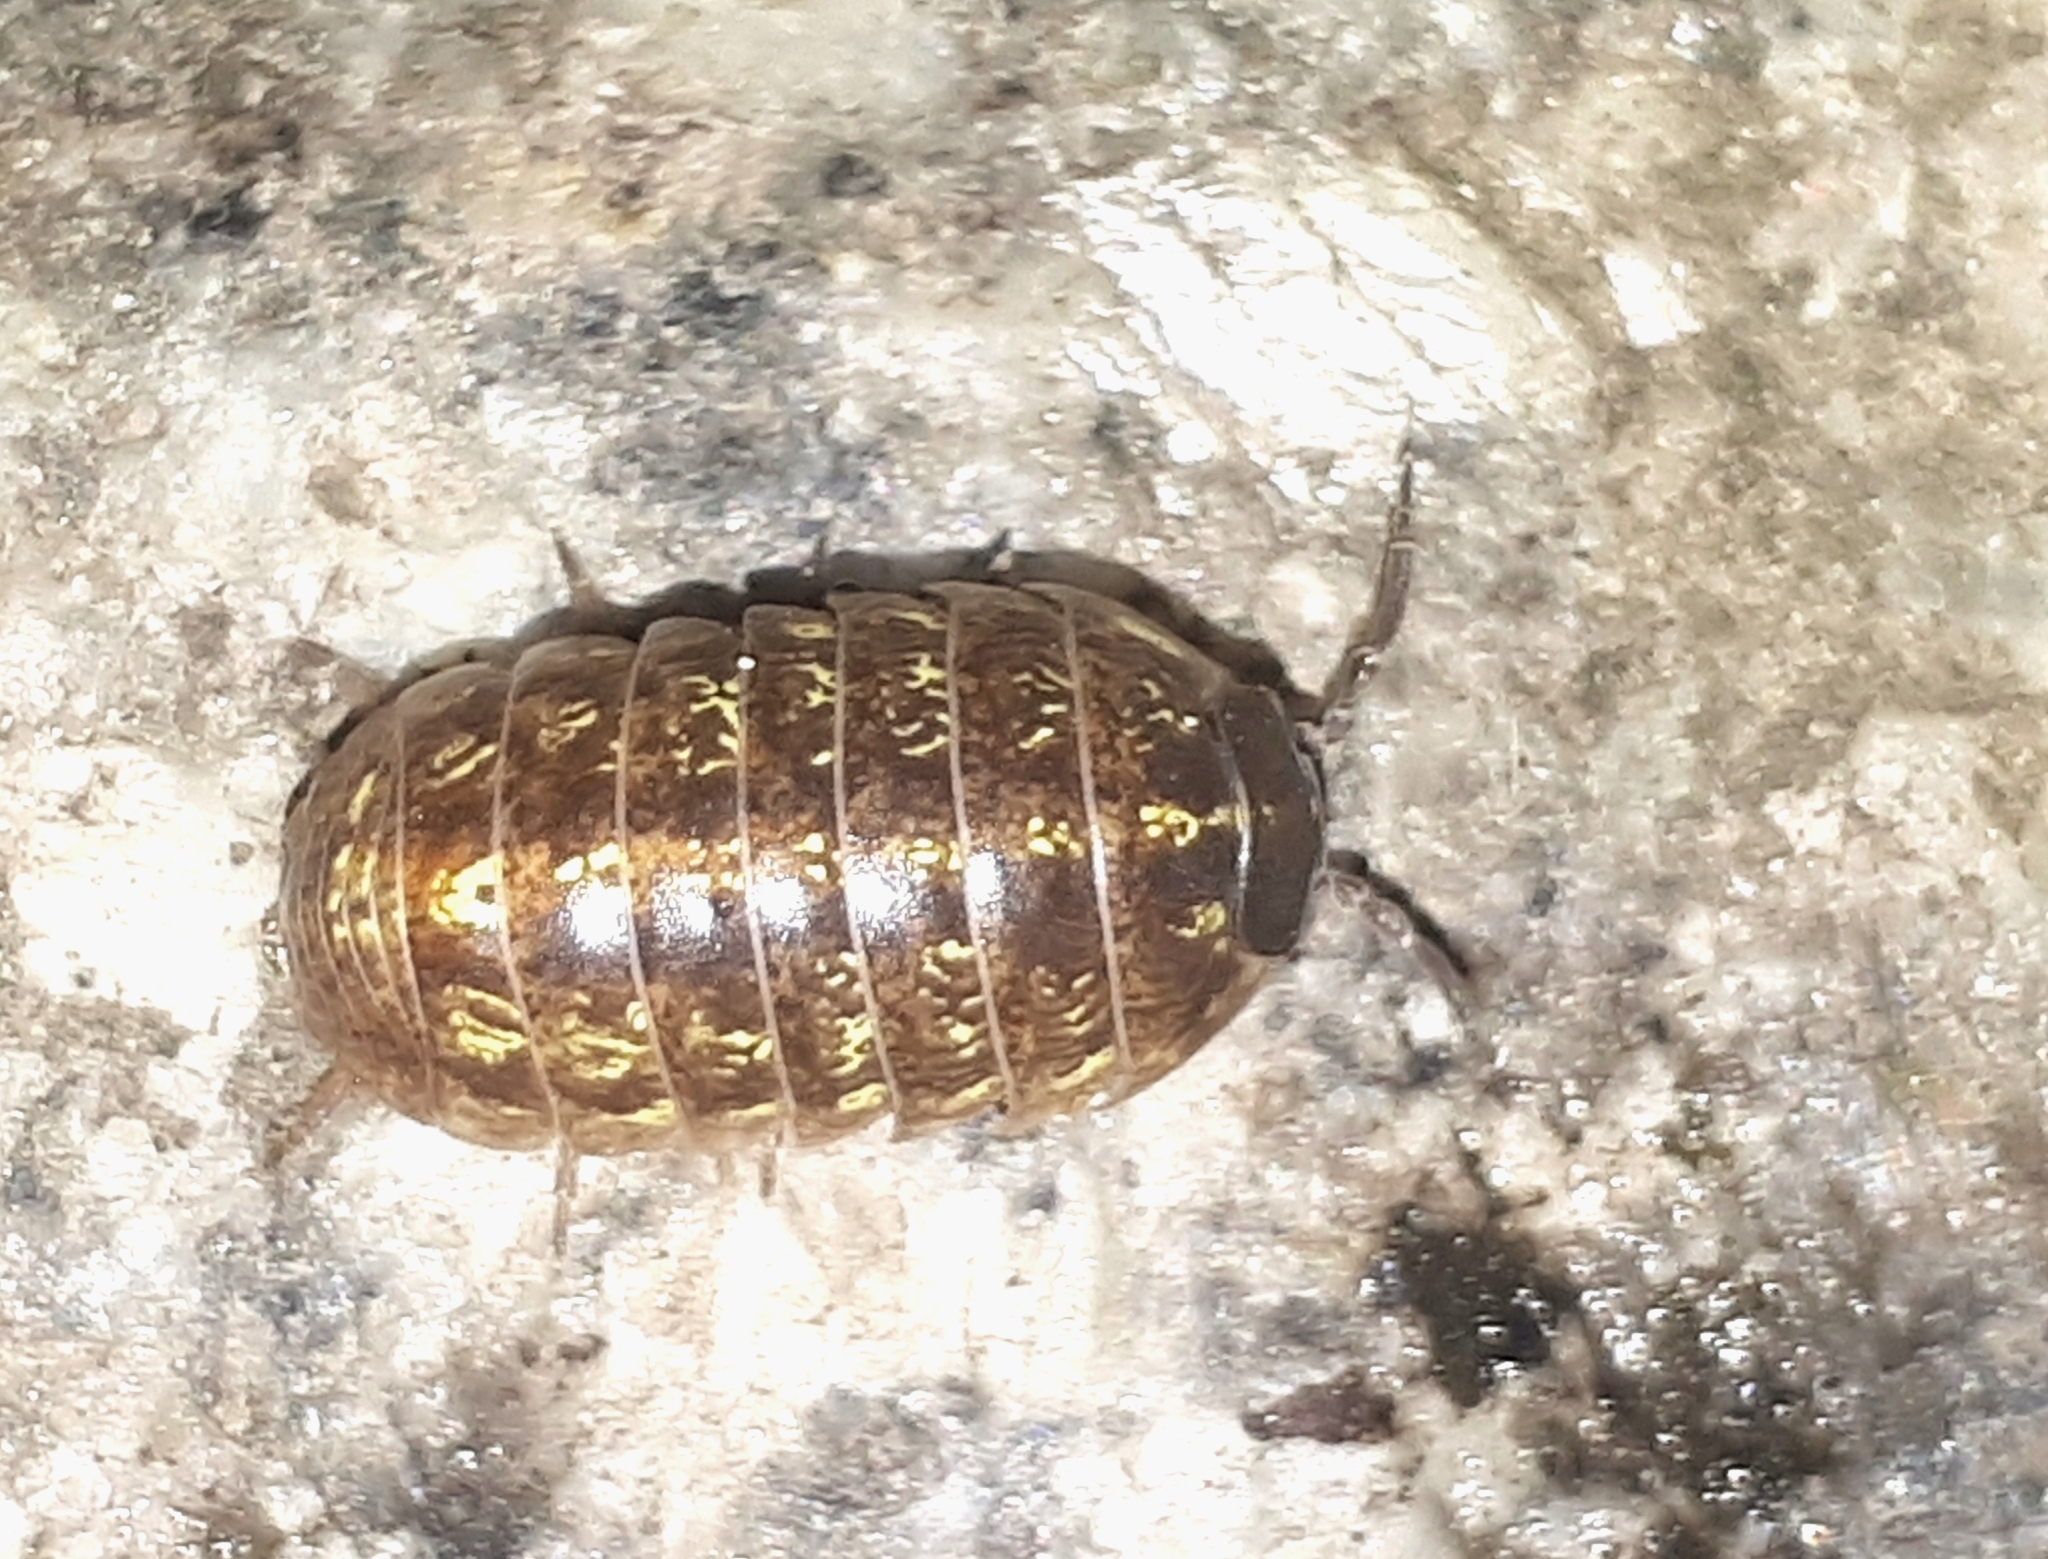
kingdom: Animalia
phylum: Arthropoda
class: Malacostraca
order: Isopoda
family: Armadillidiidae
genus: Armadillidium
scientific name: Armadillidium vulgare
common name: Common pill woodlouse
